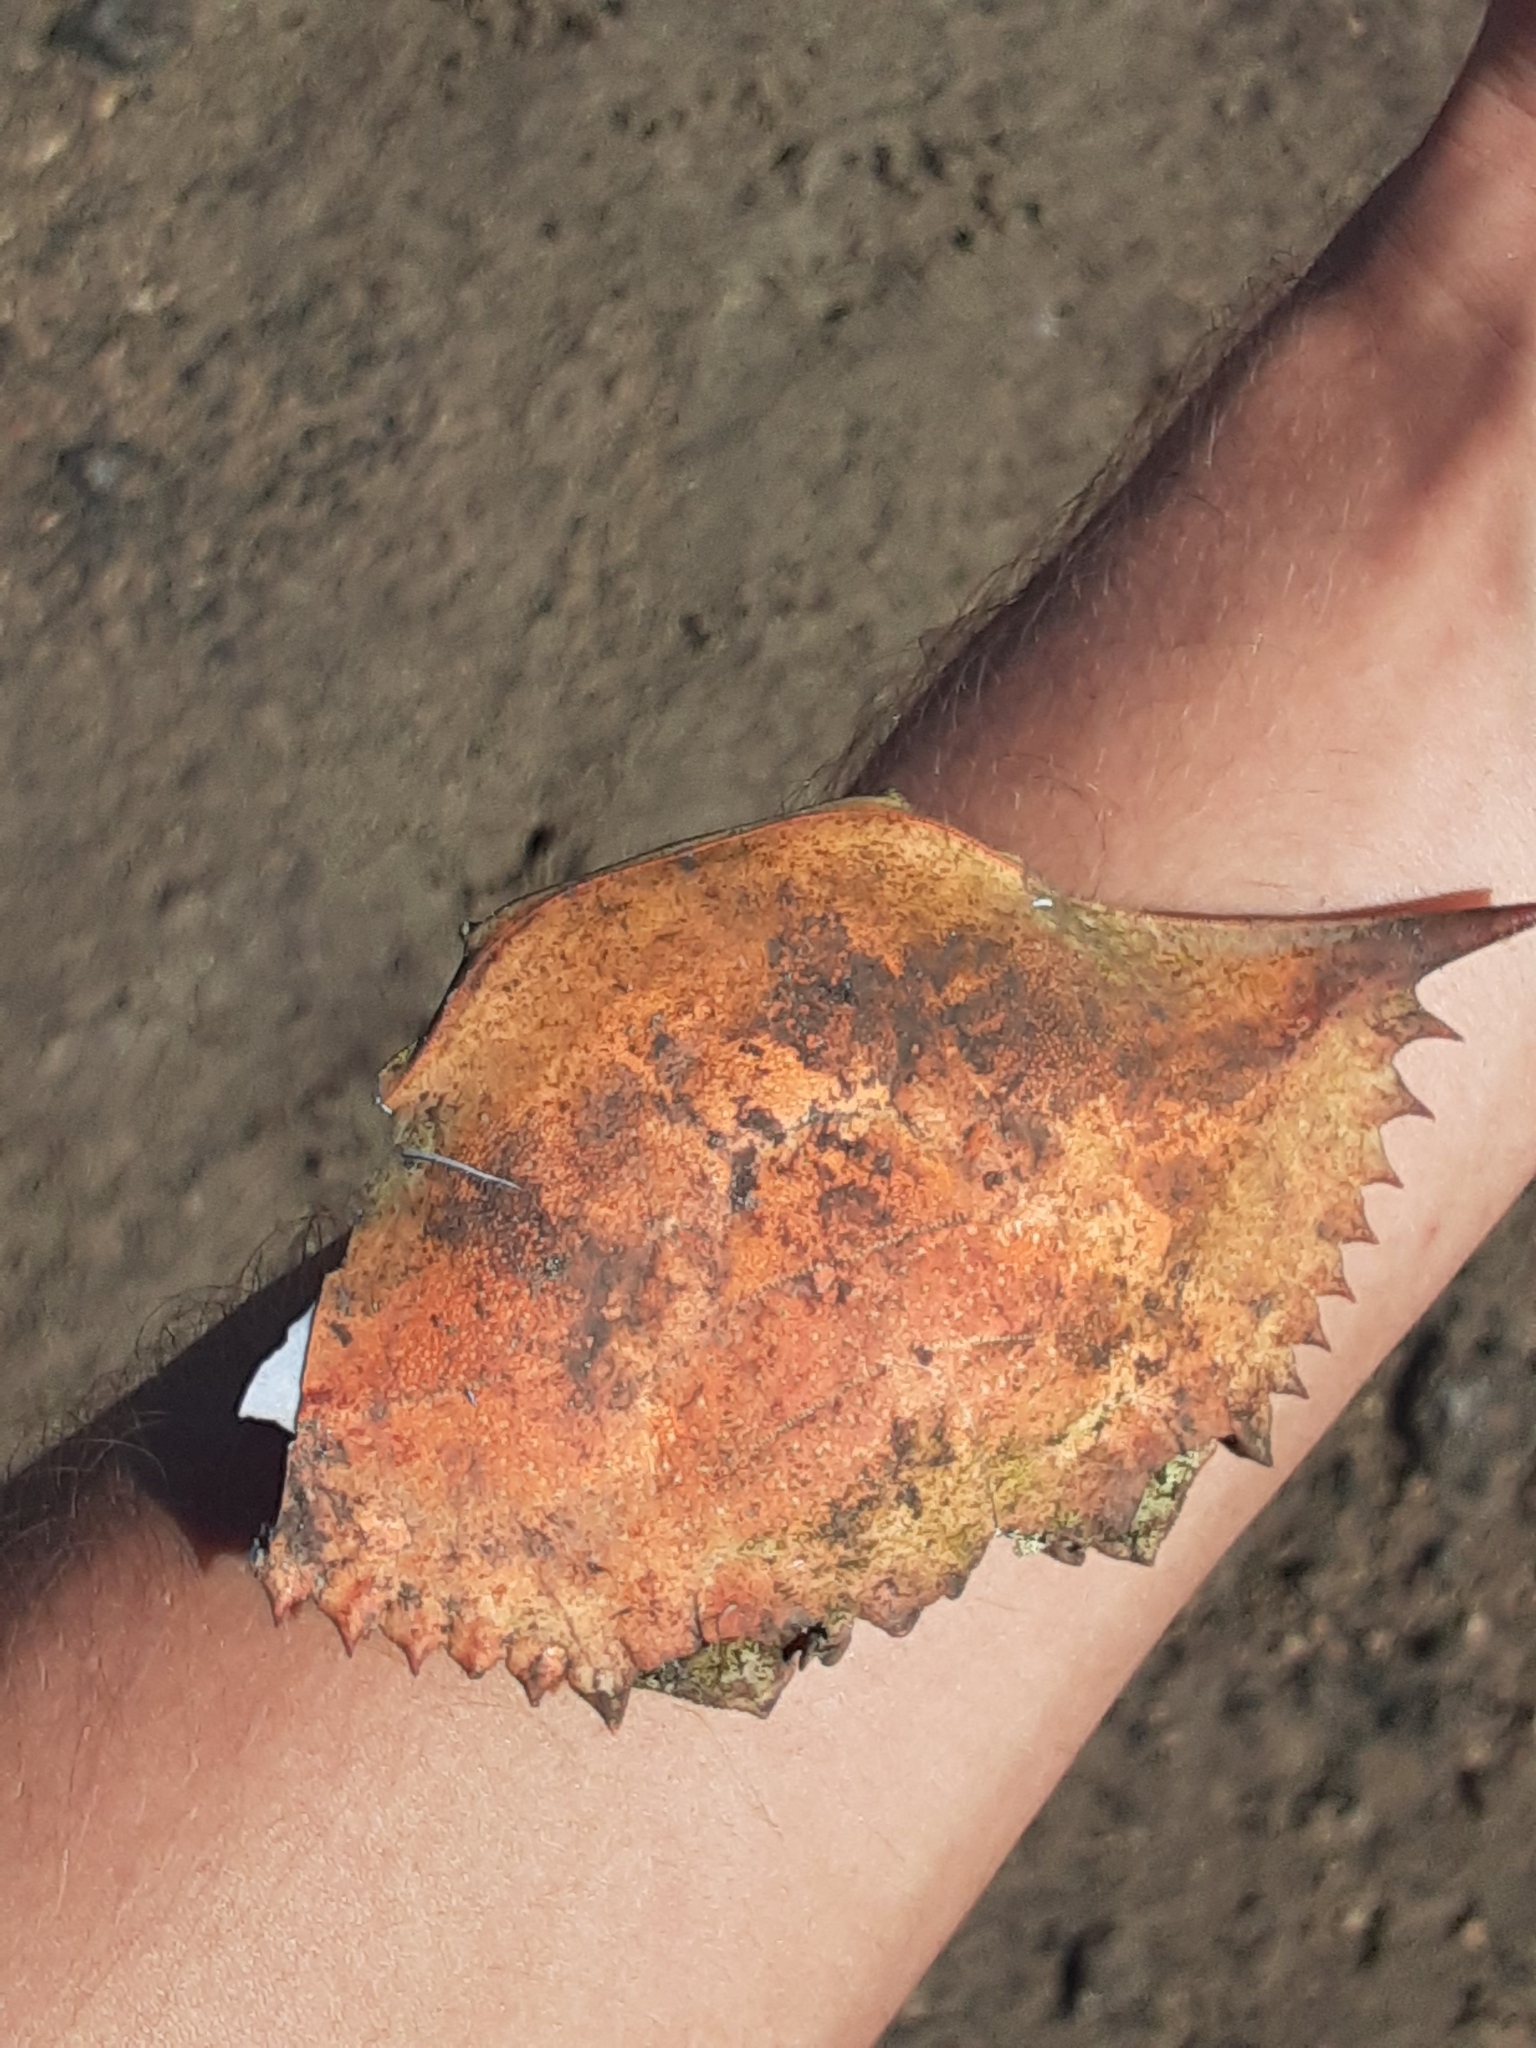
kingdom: Animalia
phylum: Arthropoda
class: Malacostraca
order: Decapoda
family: Portunidae
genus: Callinectes
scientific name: Callinectes sapidus
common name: Blue crab
